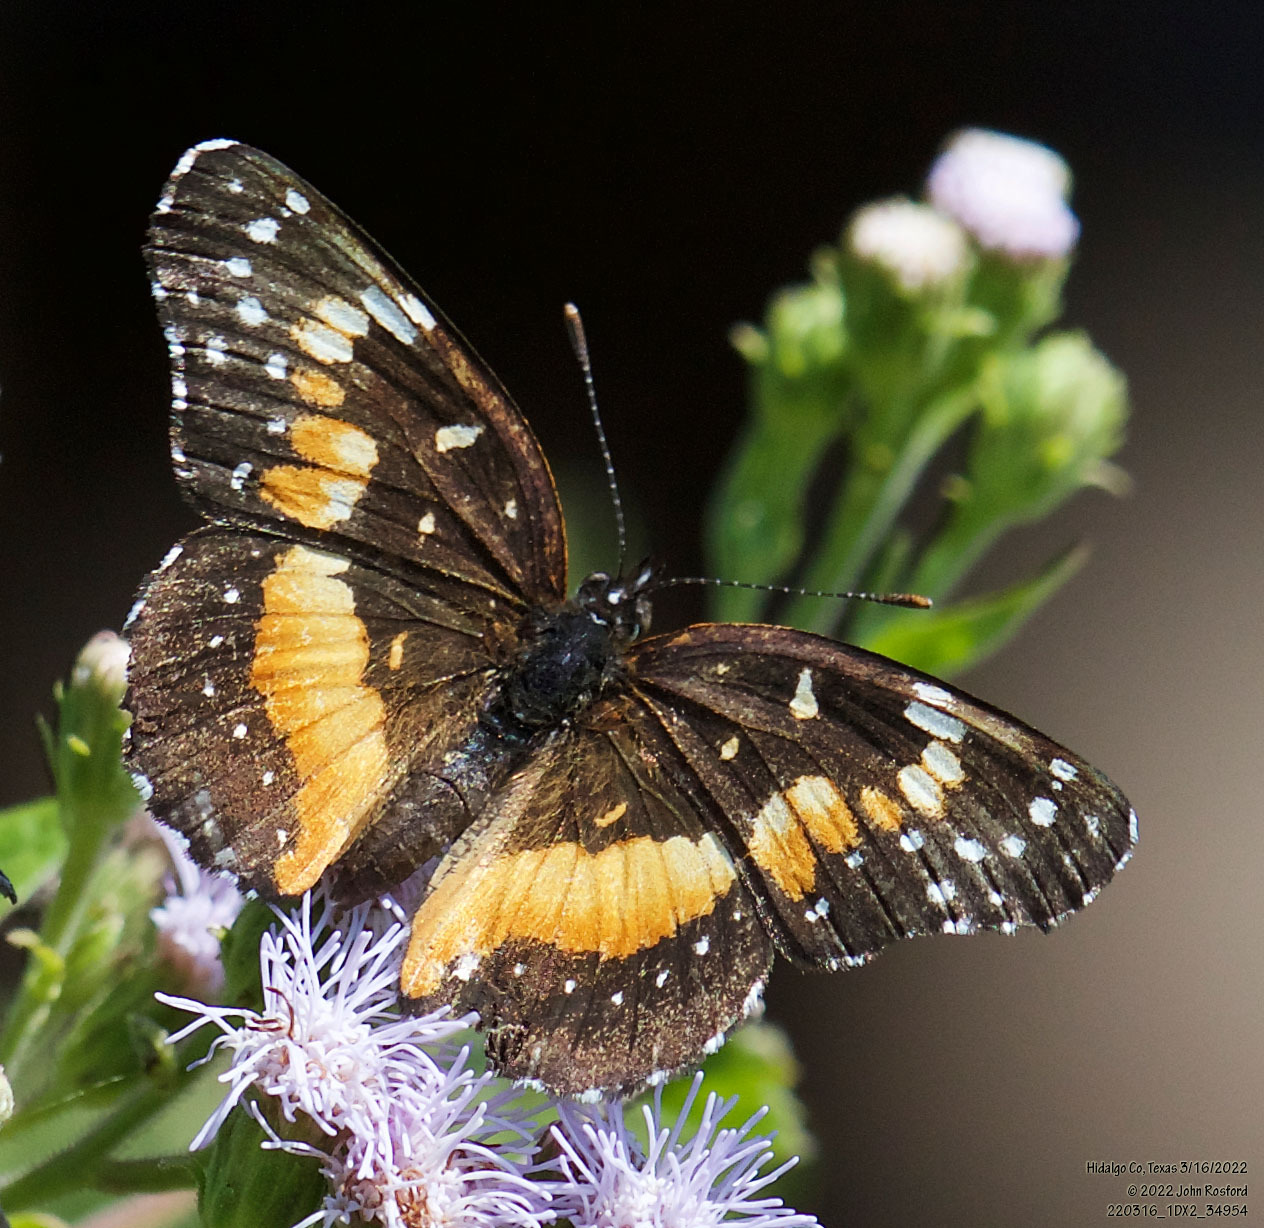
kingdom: Animalia
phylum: Arthropoda
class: Insecta
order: Lepidoptera
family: Nymphalidae
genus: Chlosyne
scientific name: Chlosyne lacinia
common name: Bordered patch
